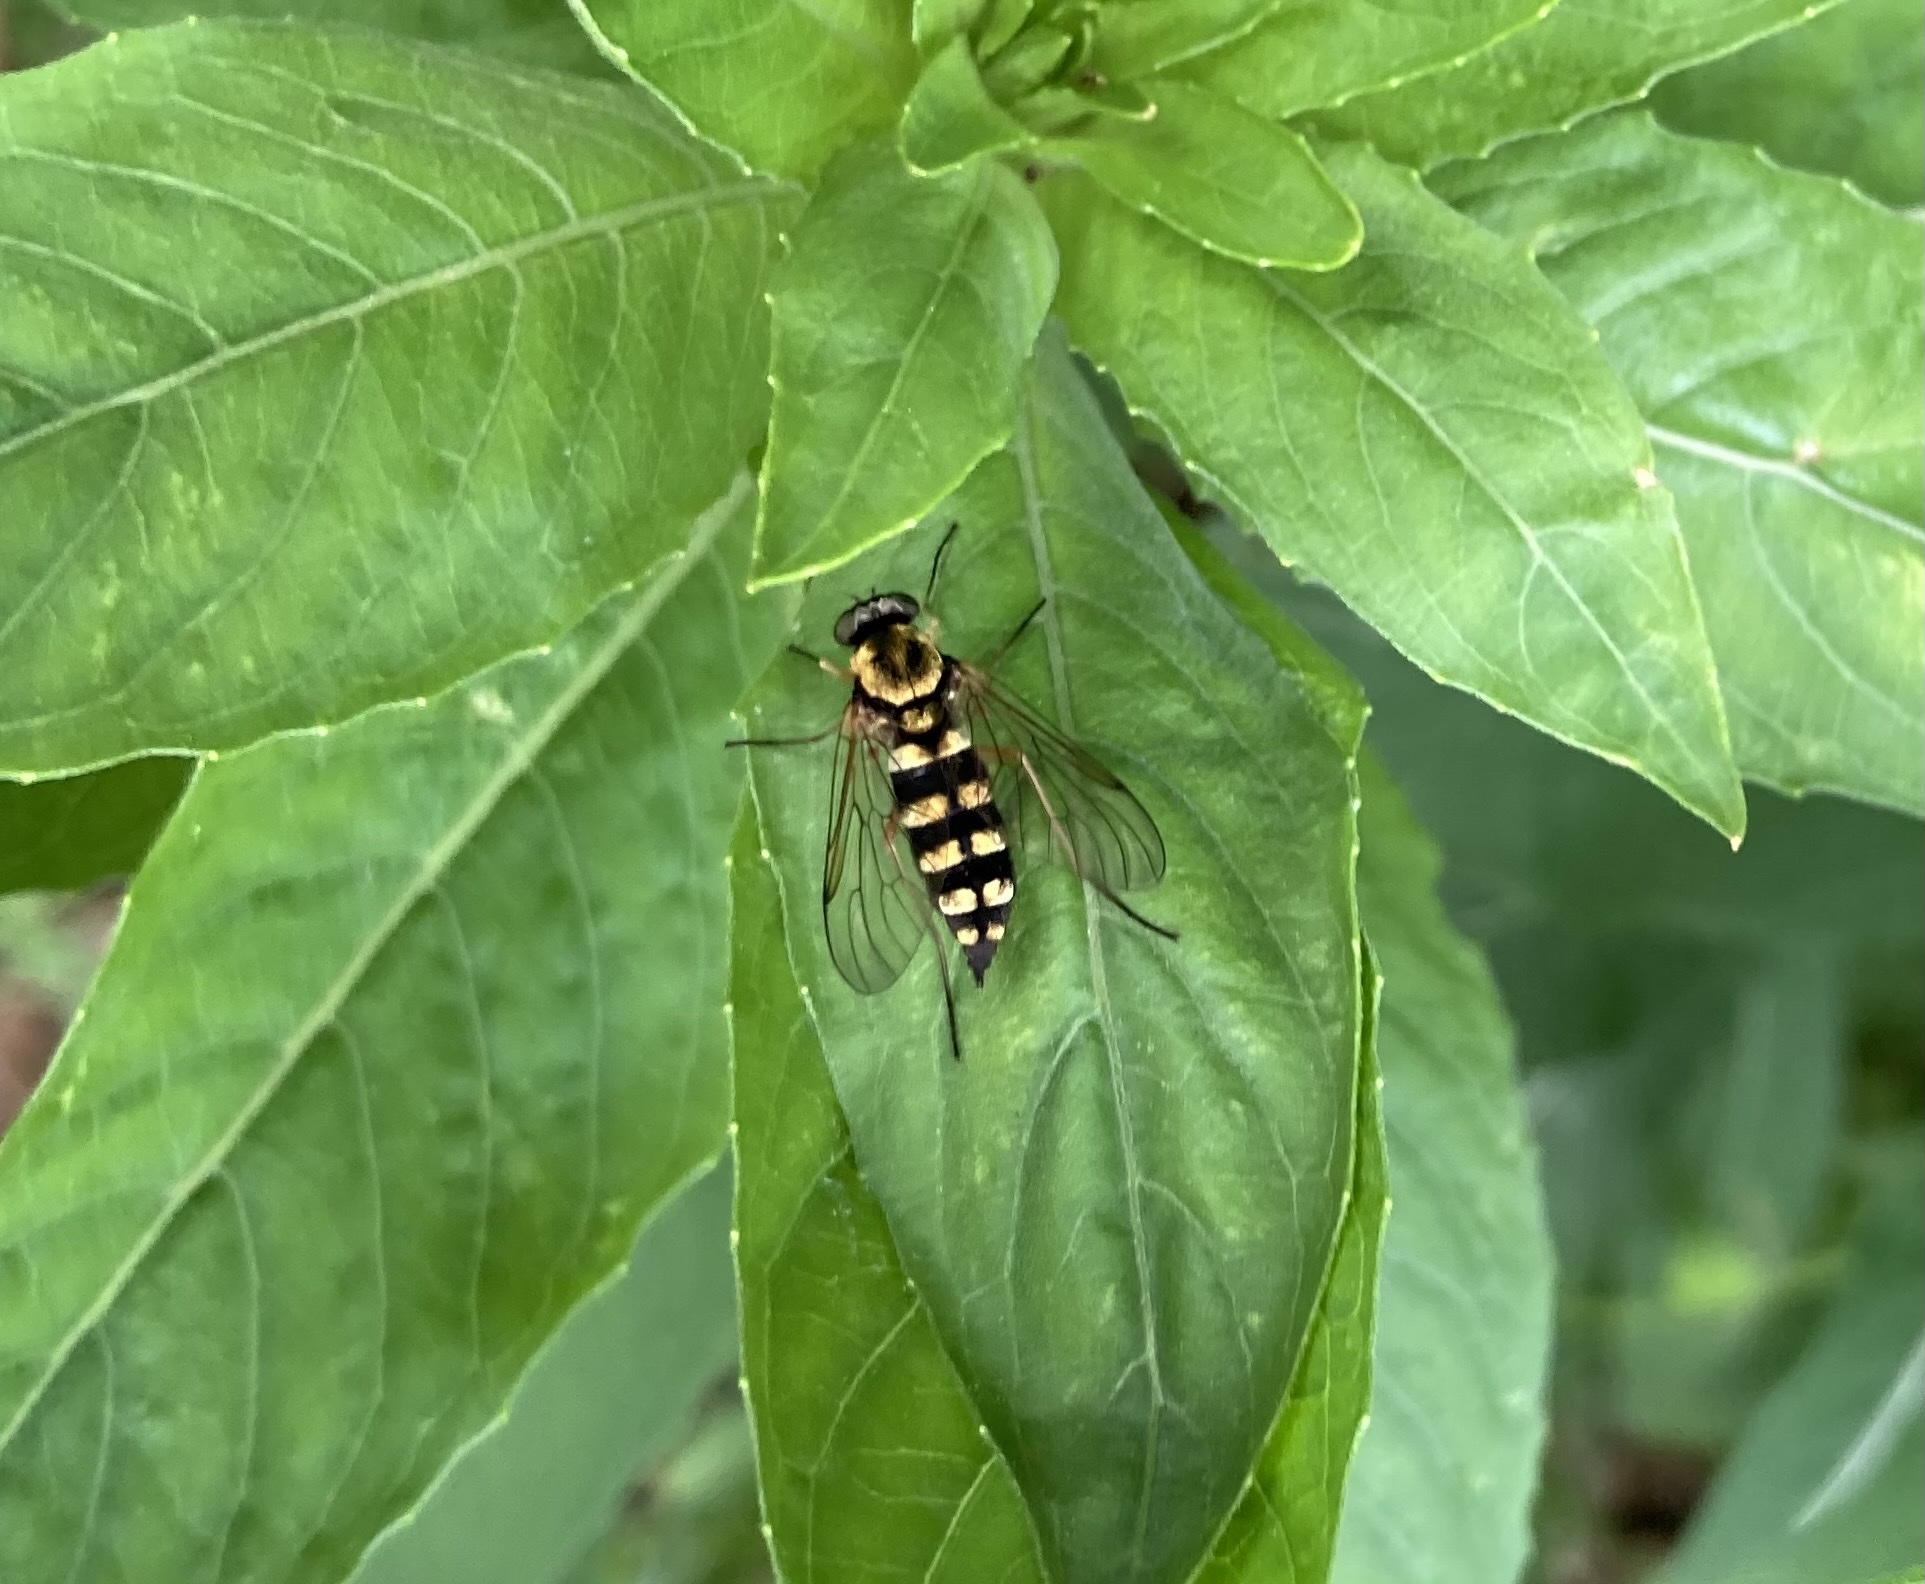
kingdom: Animalia
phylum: Arthropoda
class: Insecta
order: Diptera
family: Rhagionidae
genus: Chrysopilus
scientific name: Chrysopilus ornatus
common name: Ornate snipe fly
